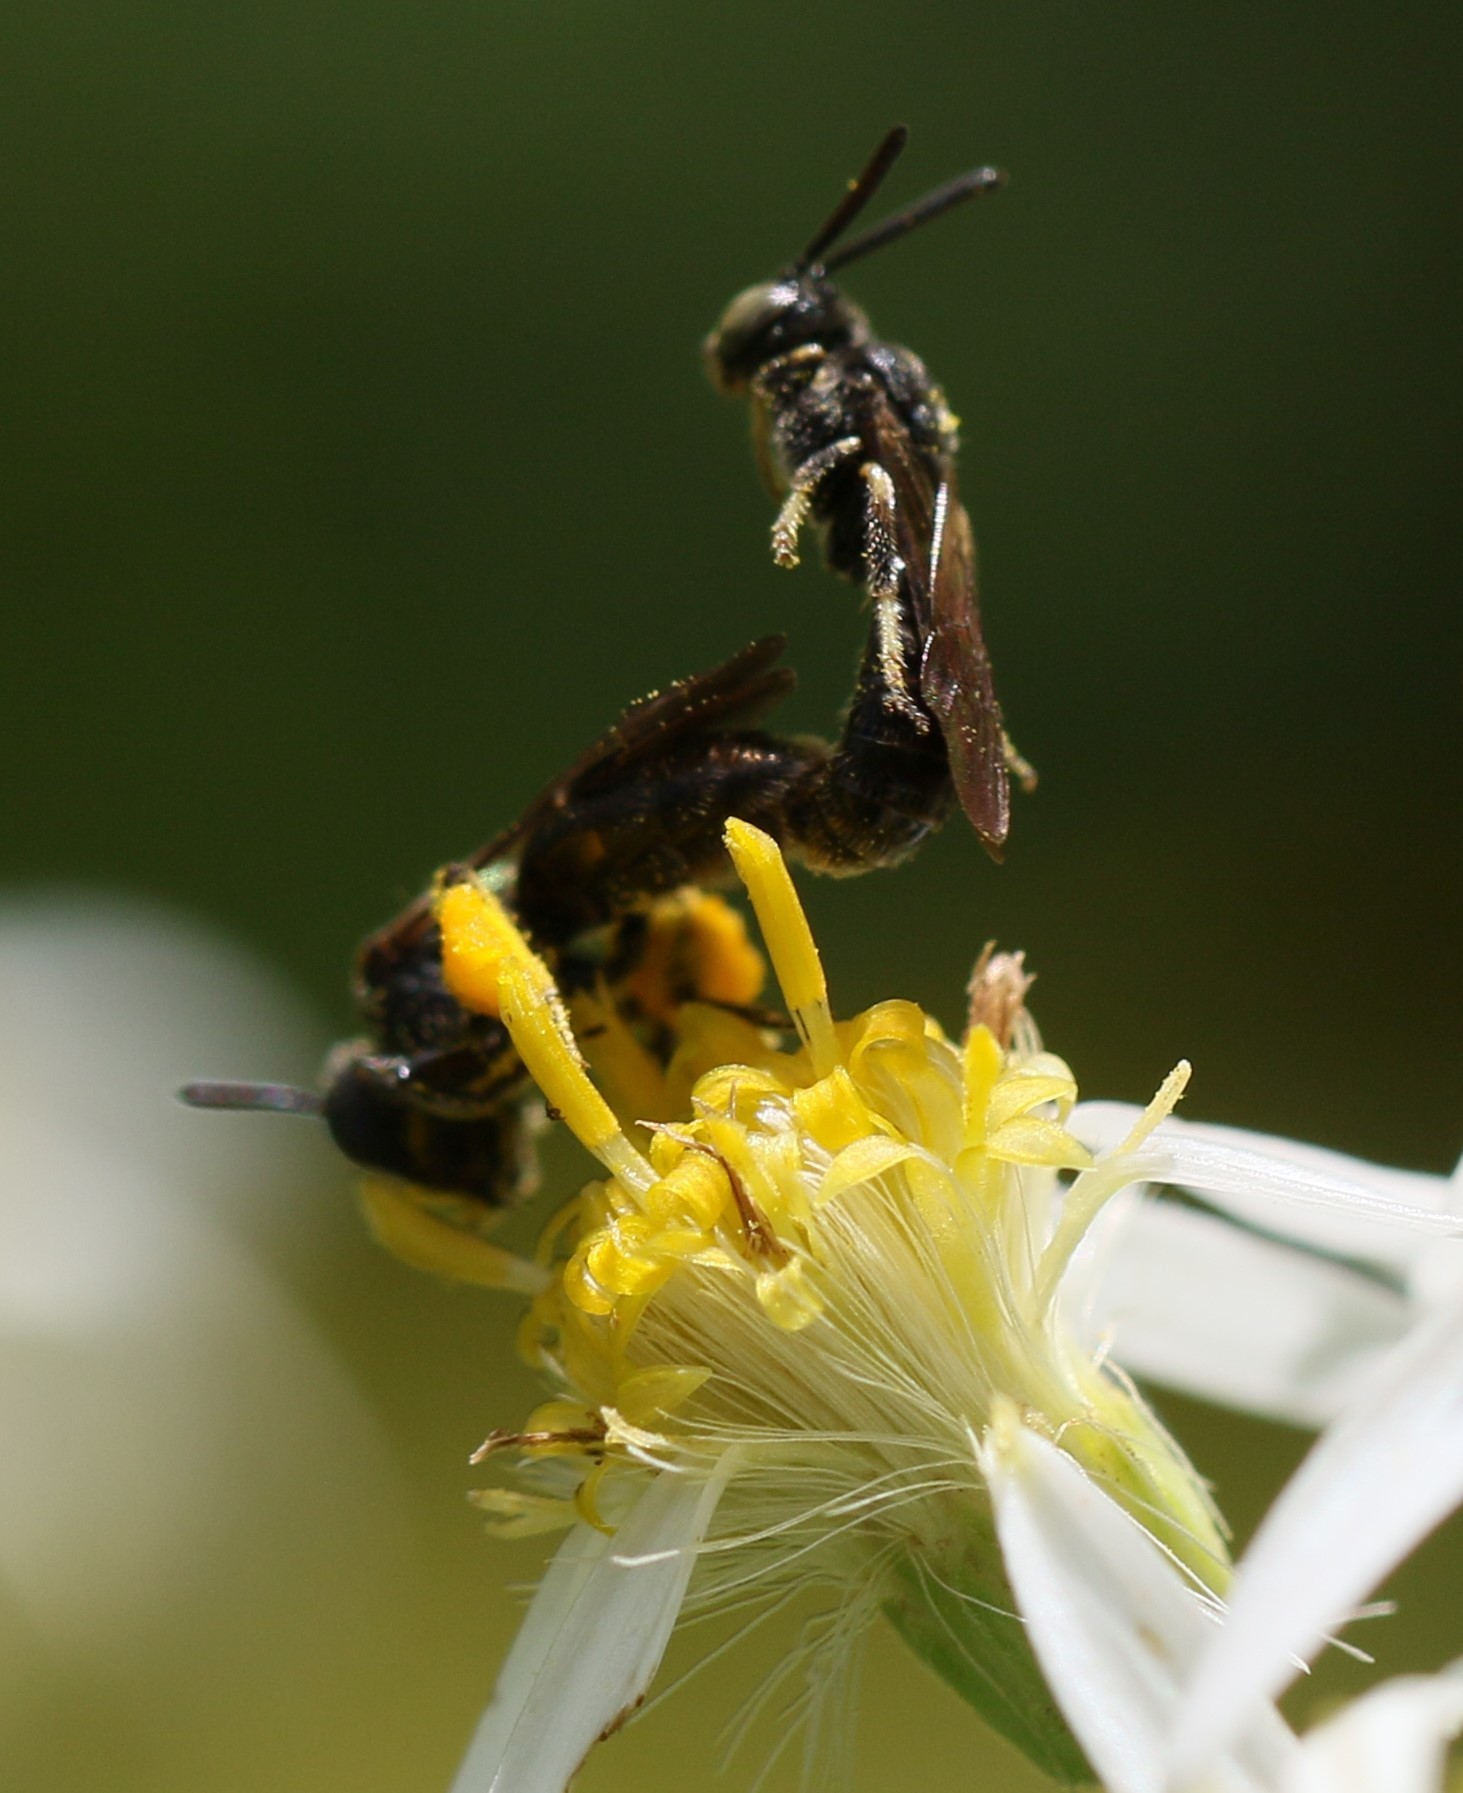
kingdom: Animalia
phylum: Arthropoda
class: Insecta
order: Hymenoptera
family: Andrenidae
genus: Pseudopanurgus
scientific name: Pseudopanurgus andrenoides
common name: Eastern bare-miner
